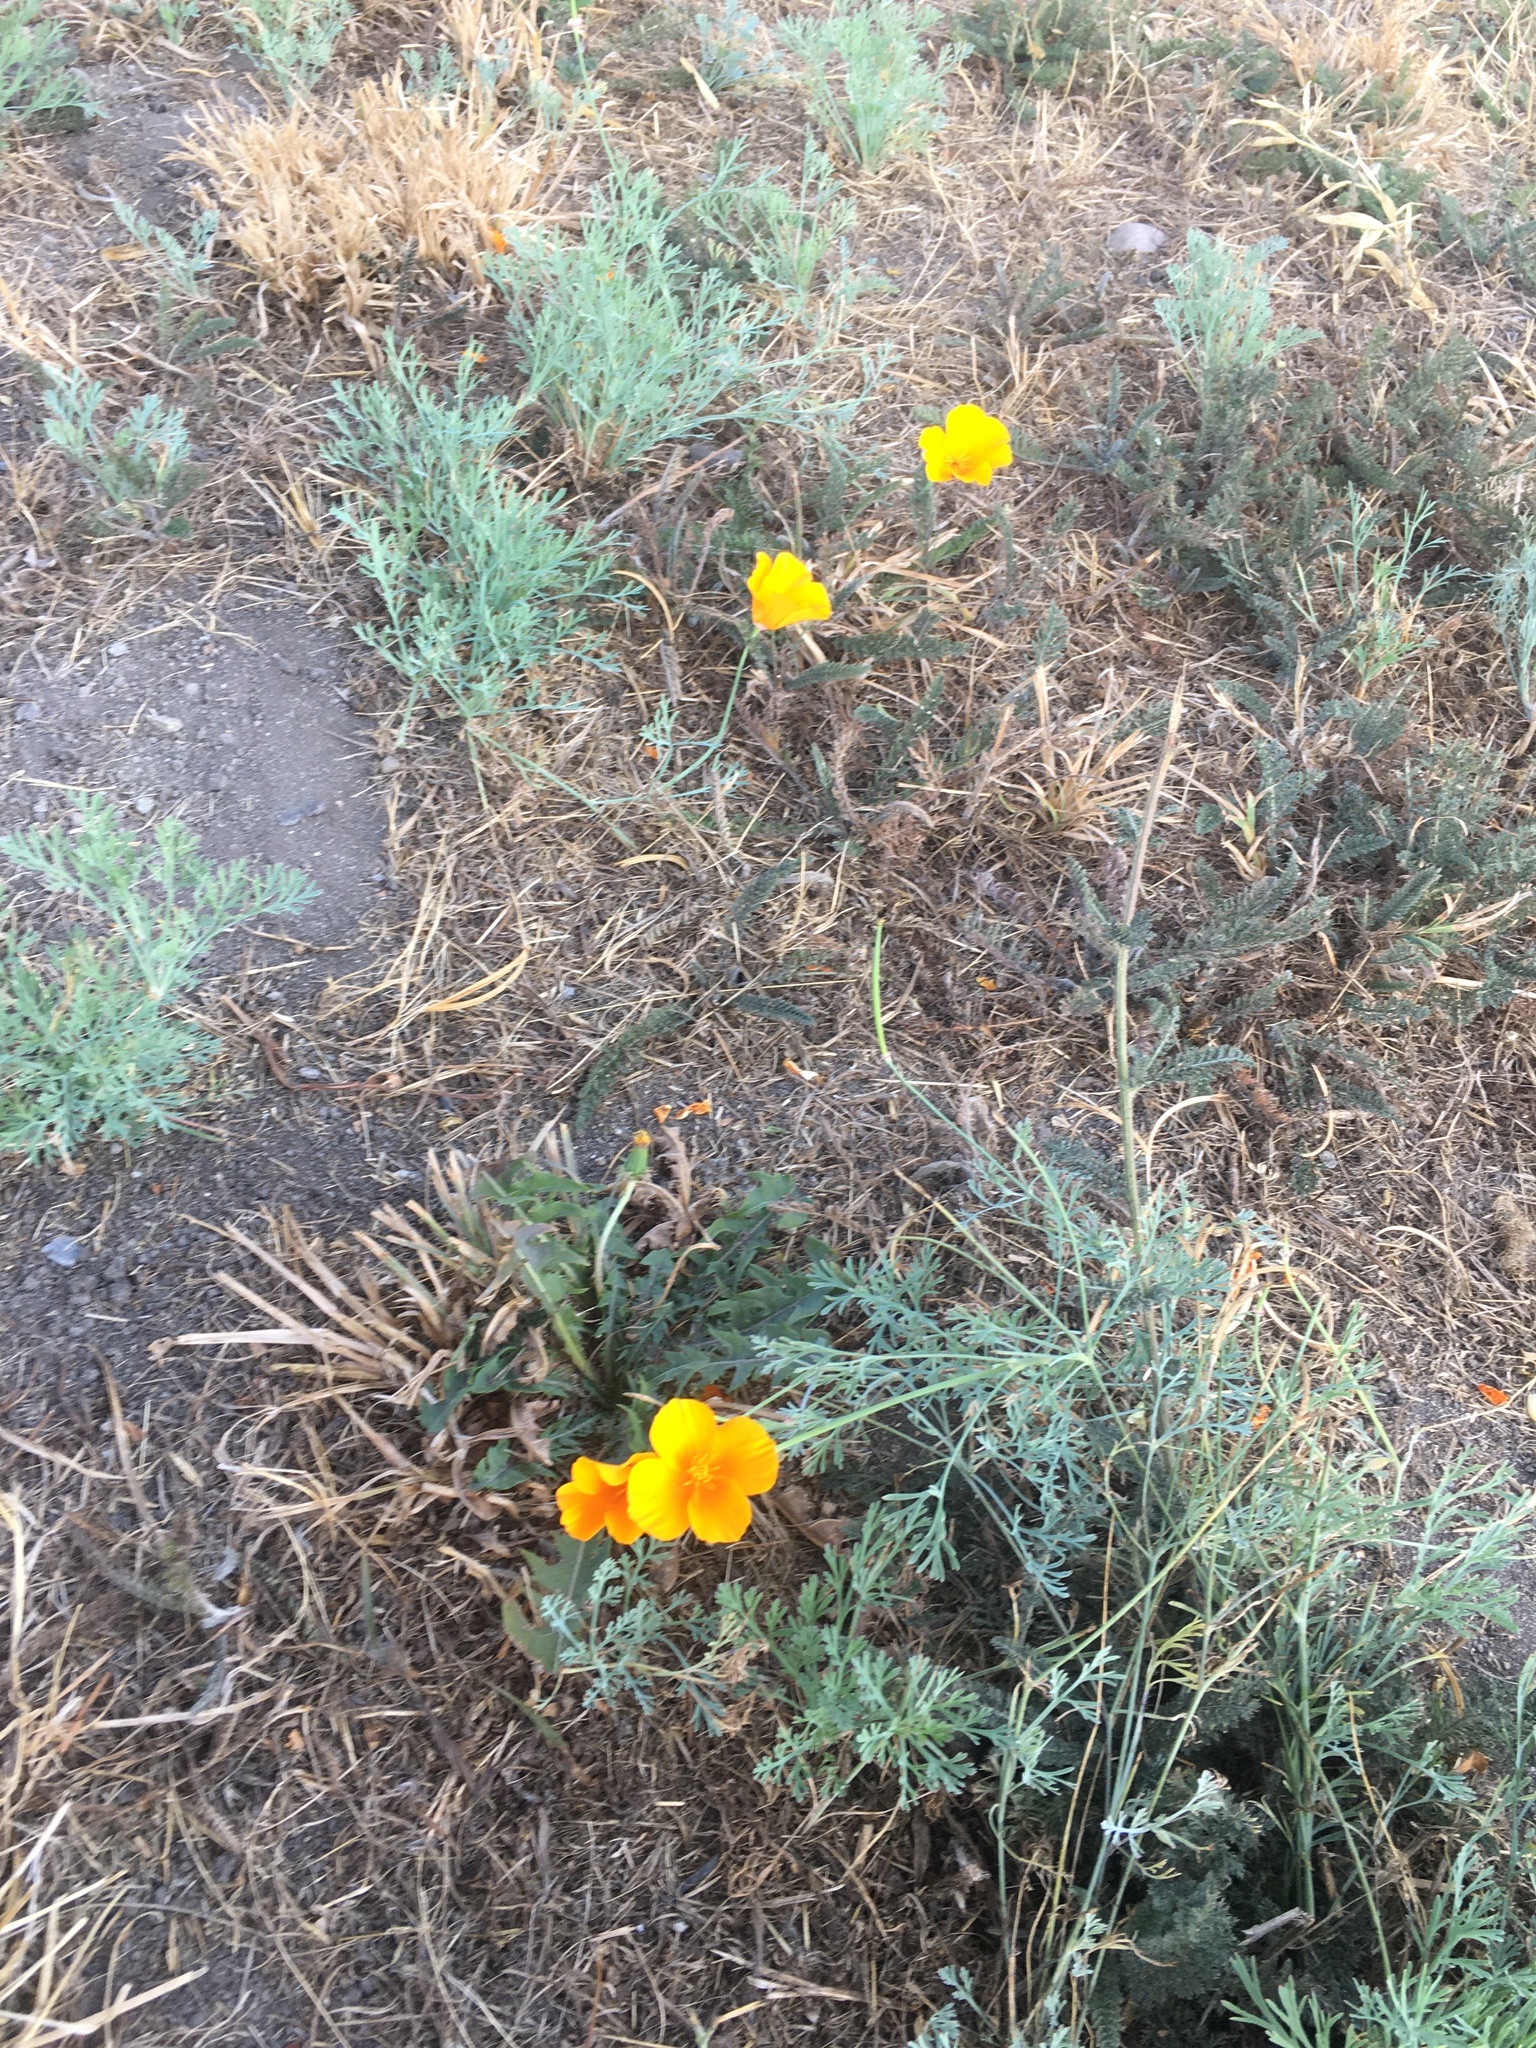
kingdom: Plantae
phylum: Tracheophyta
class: Magnoliopsida
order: Ranunculales
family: Papaveraceae
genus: Eschscholzia
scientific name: Eschscholzia californica
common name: California poppy
